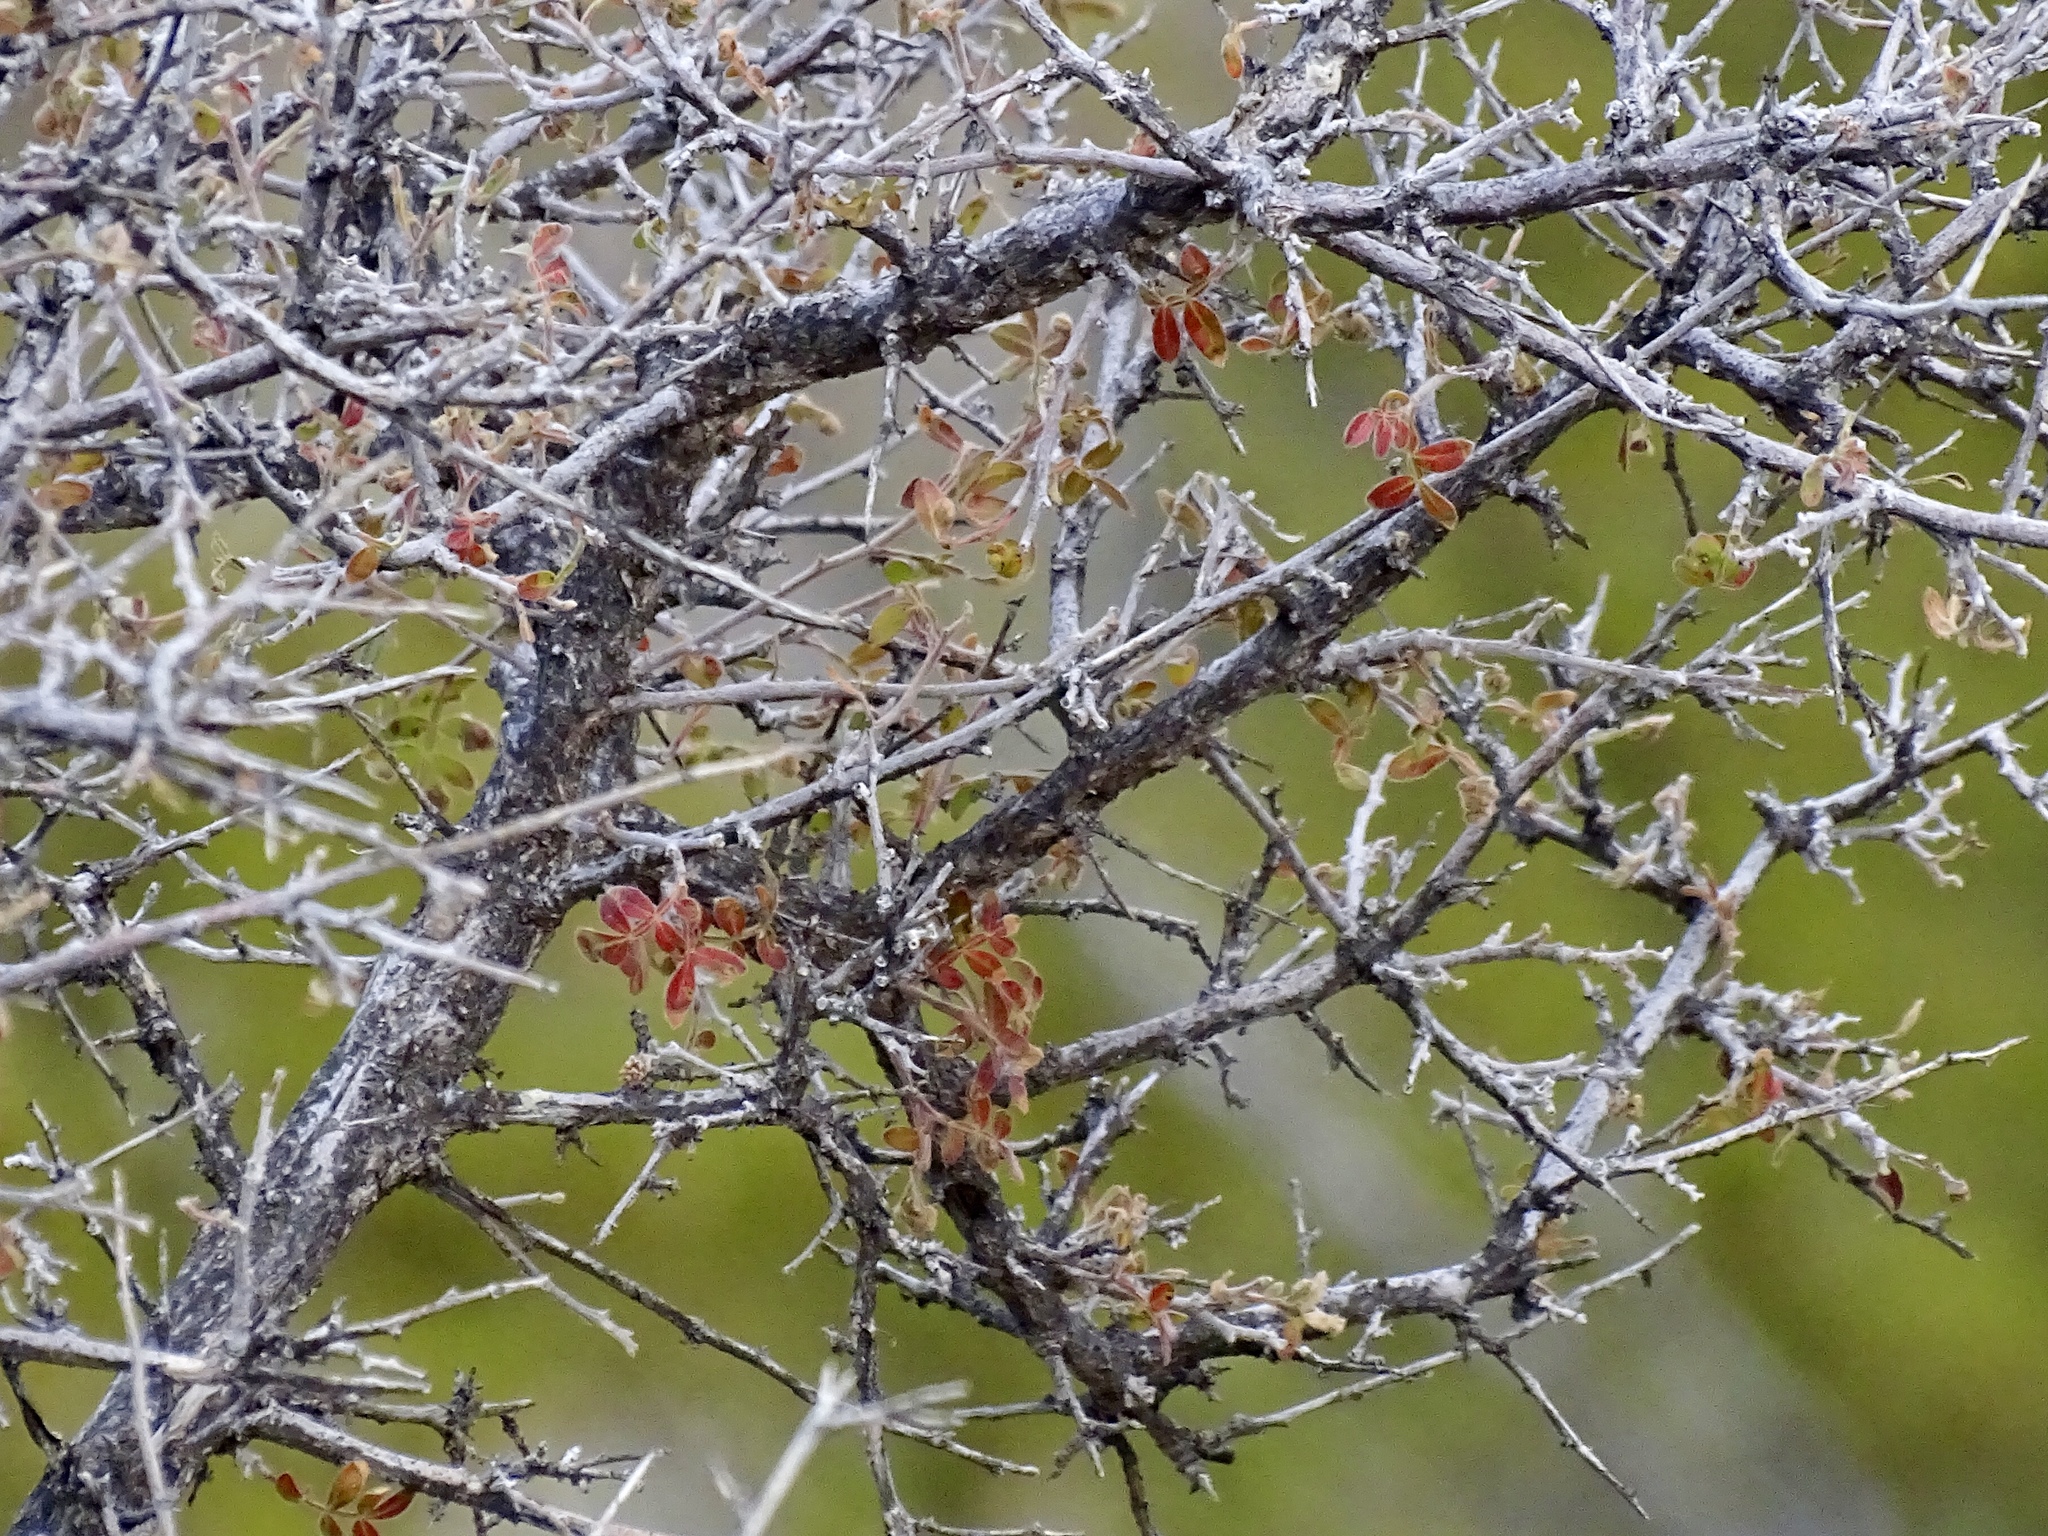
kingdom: Plantae
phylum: Tracheophyta
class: Magnoliopsida
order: Sapindales
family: Anacardiaceae
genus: Rhus
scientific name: Rhus microphylla
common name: Desert sumac
